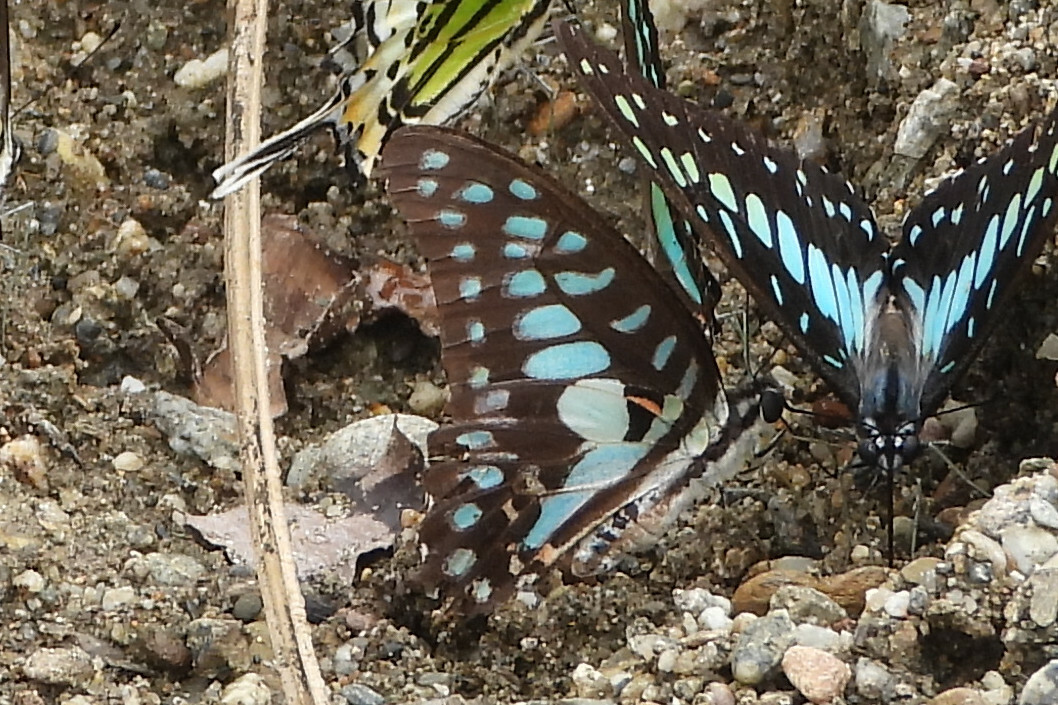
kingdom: Animalia
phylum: Arthropoda
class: Insecta
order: Lepidoptera
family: Papilionidae
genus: Graphium
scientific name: Graphium doson
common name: Common jay
